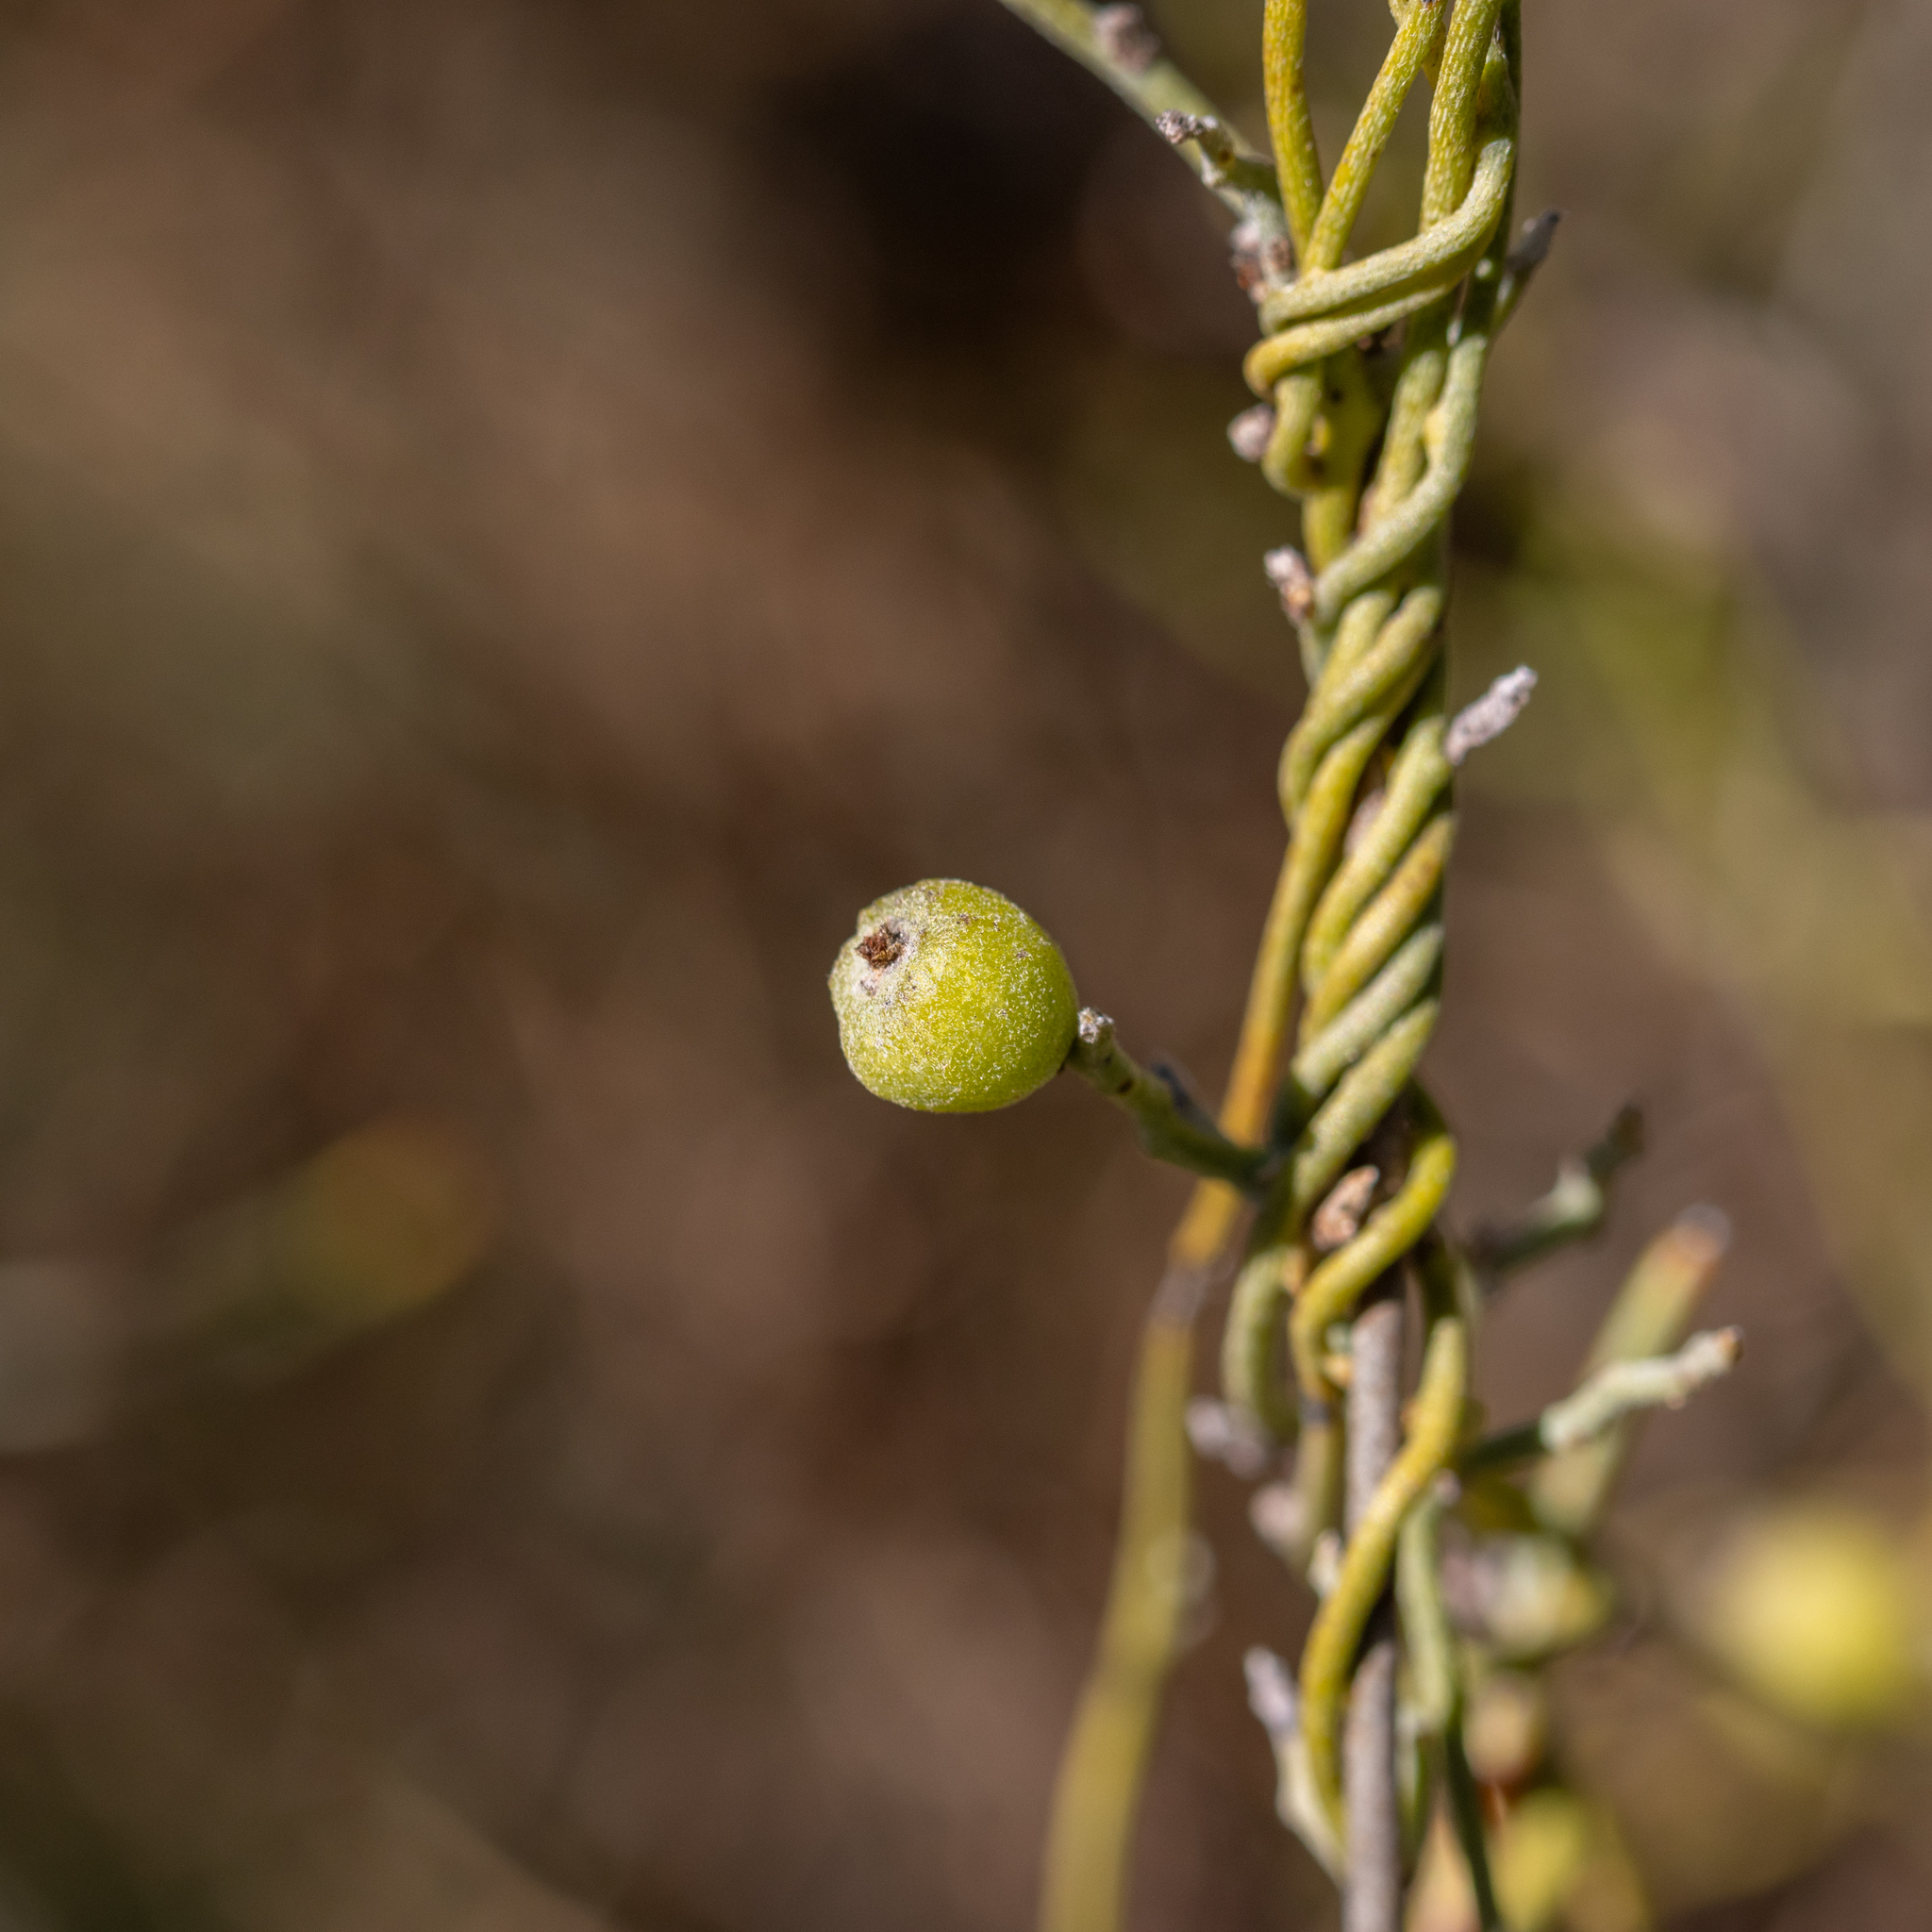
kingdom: Plantae
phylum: Tracheophyta
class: Magnoliopsida
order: Laurales
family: Lauraceae
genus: Cassytha
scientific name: Cassytha pubescens
